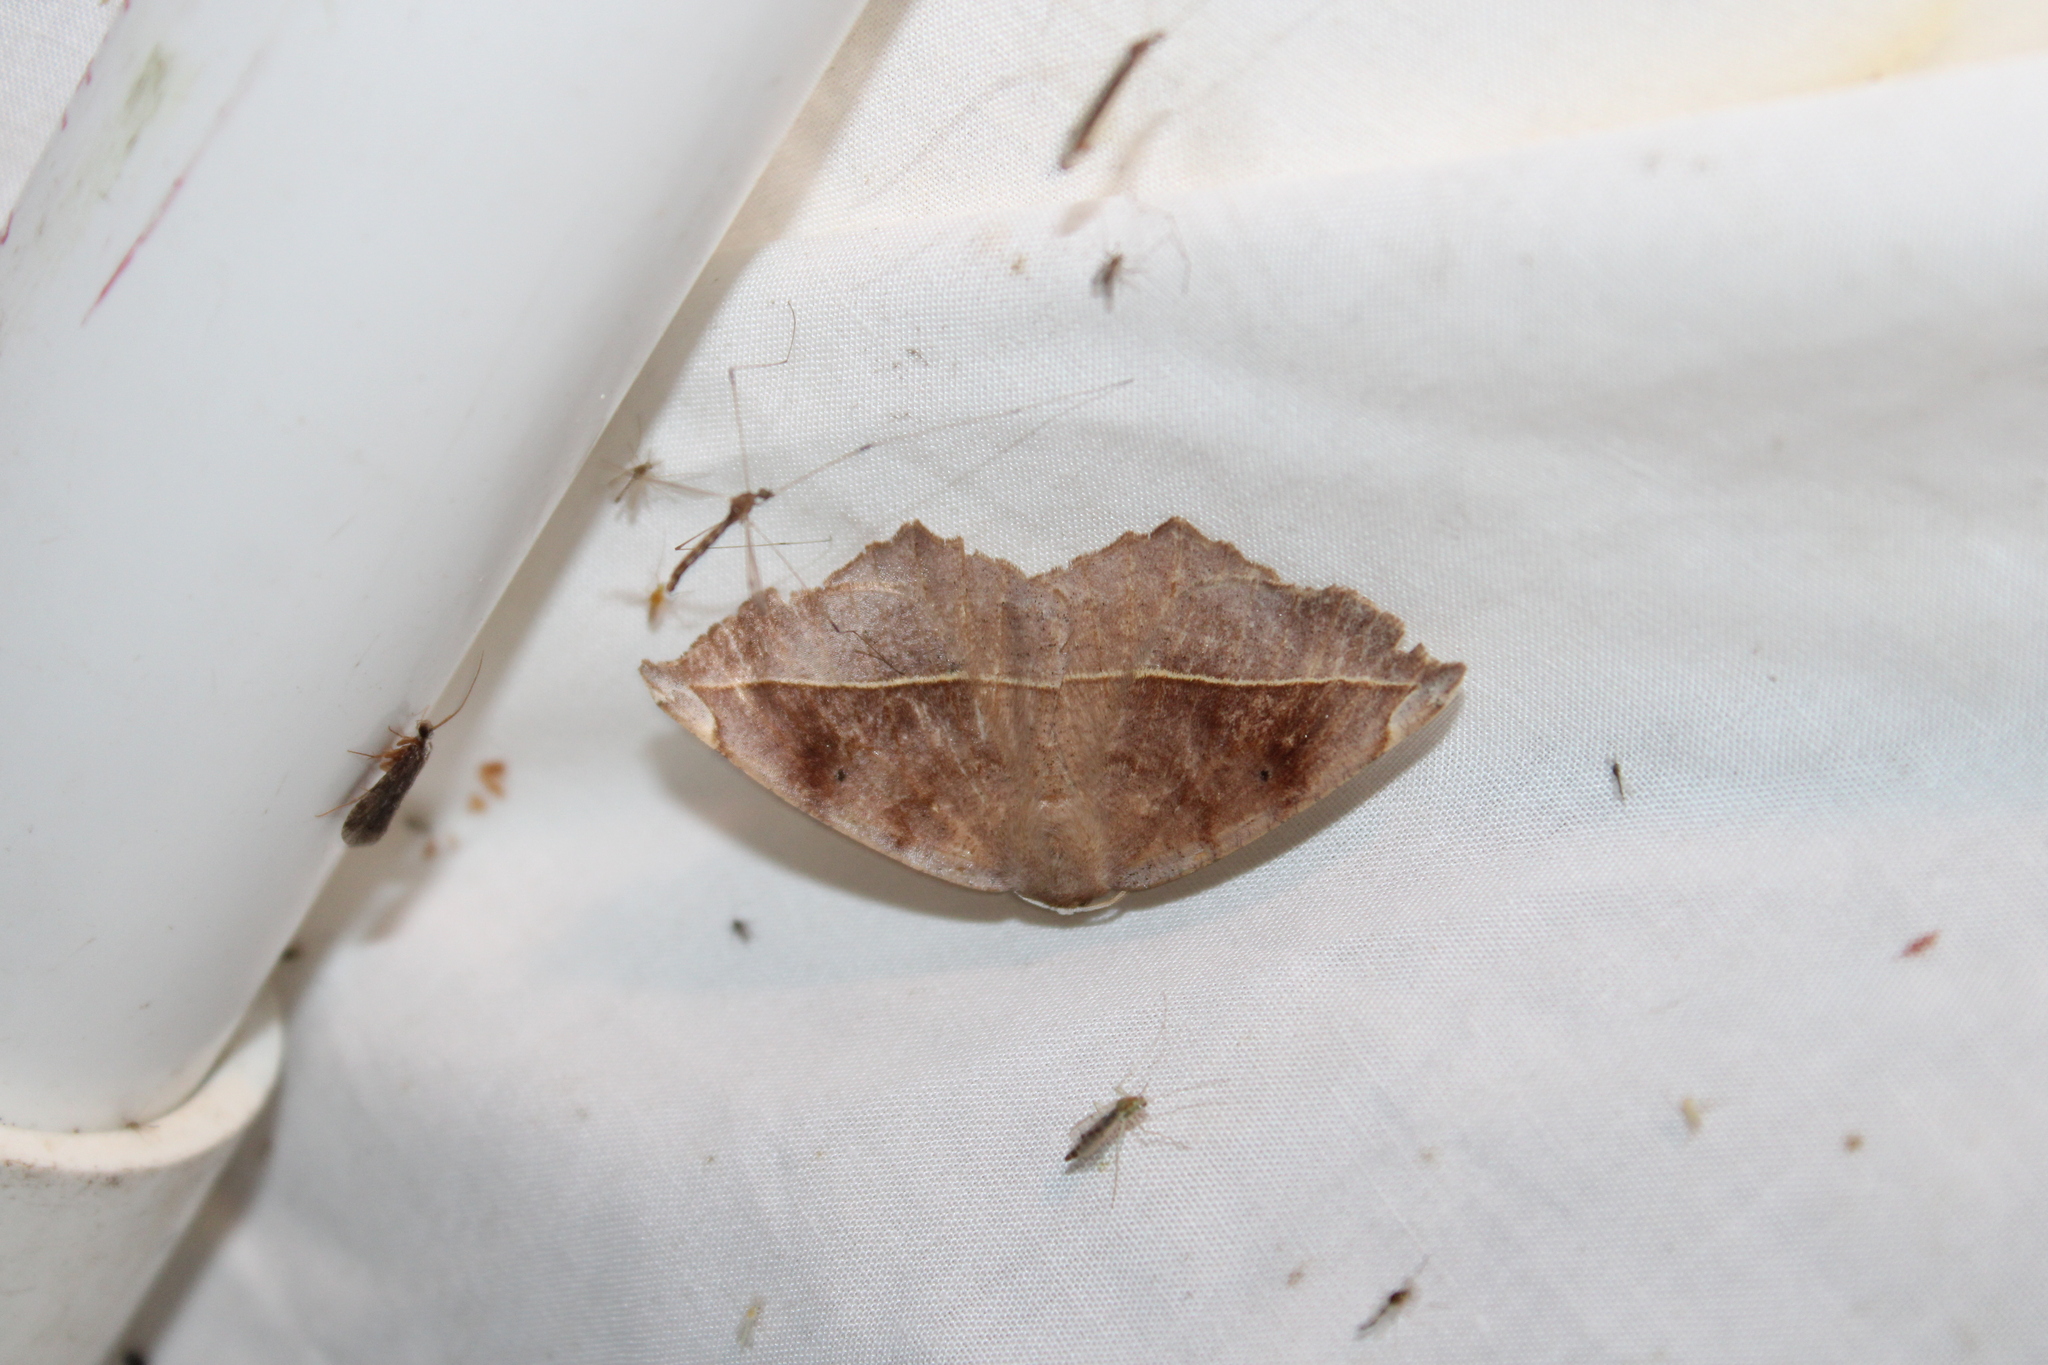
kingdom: Animalia
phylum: Arthropoda
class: Insecta
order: Lepidoptera
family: Geometridae
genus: Eutrapela
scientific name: Eutrapela clemataria
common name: Curved-toothed geometer
